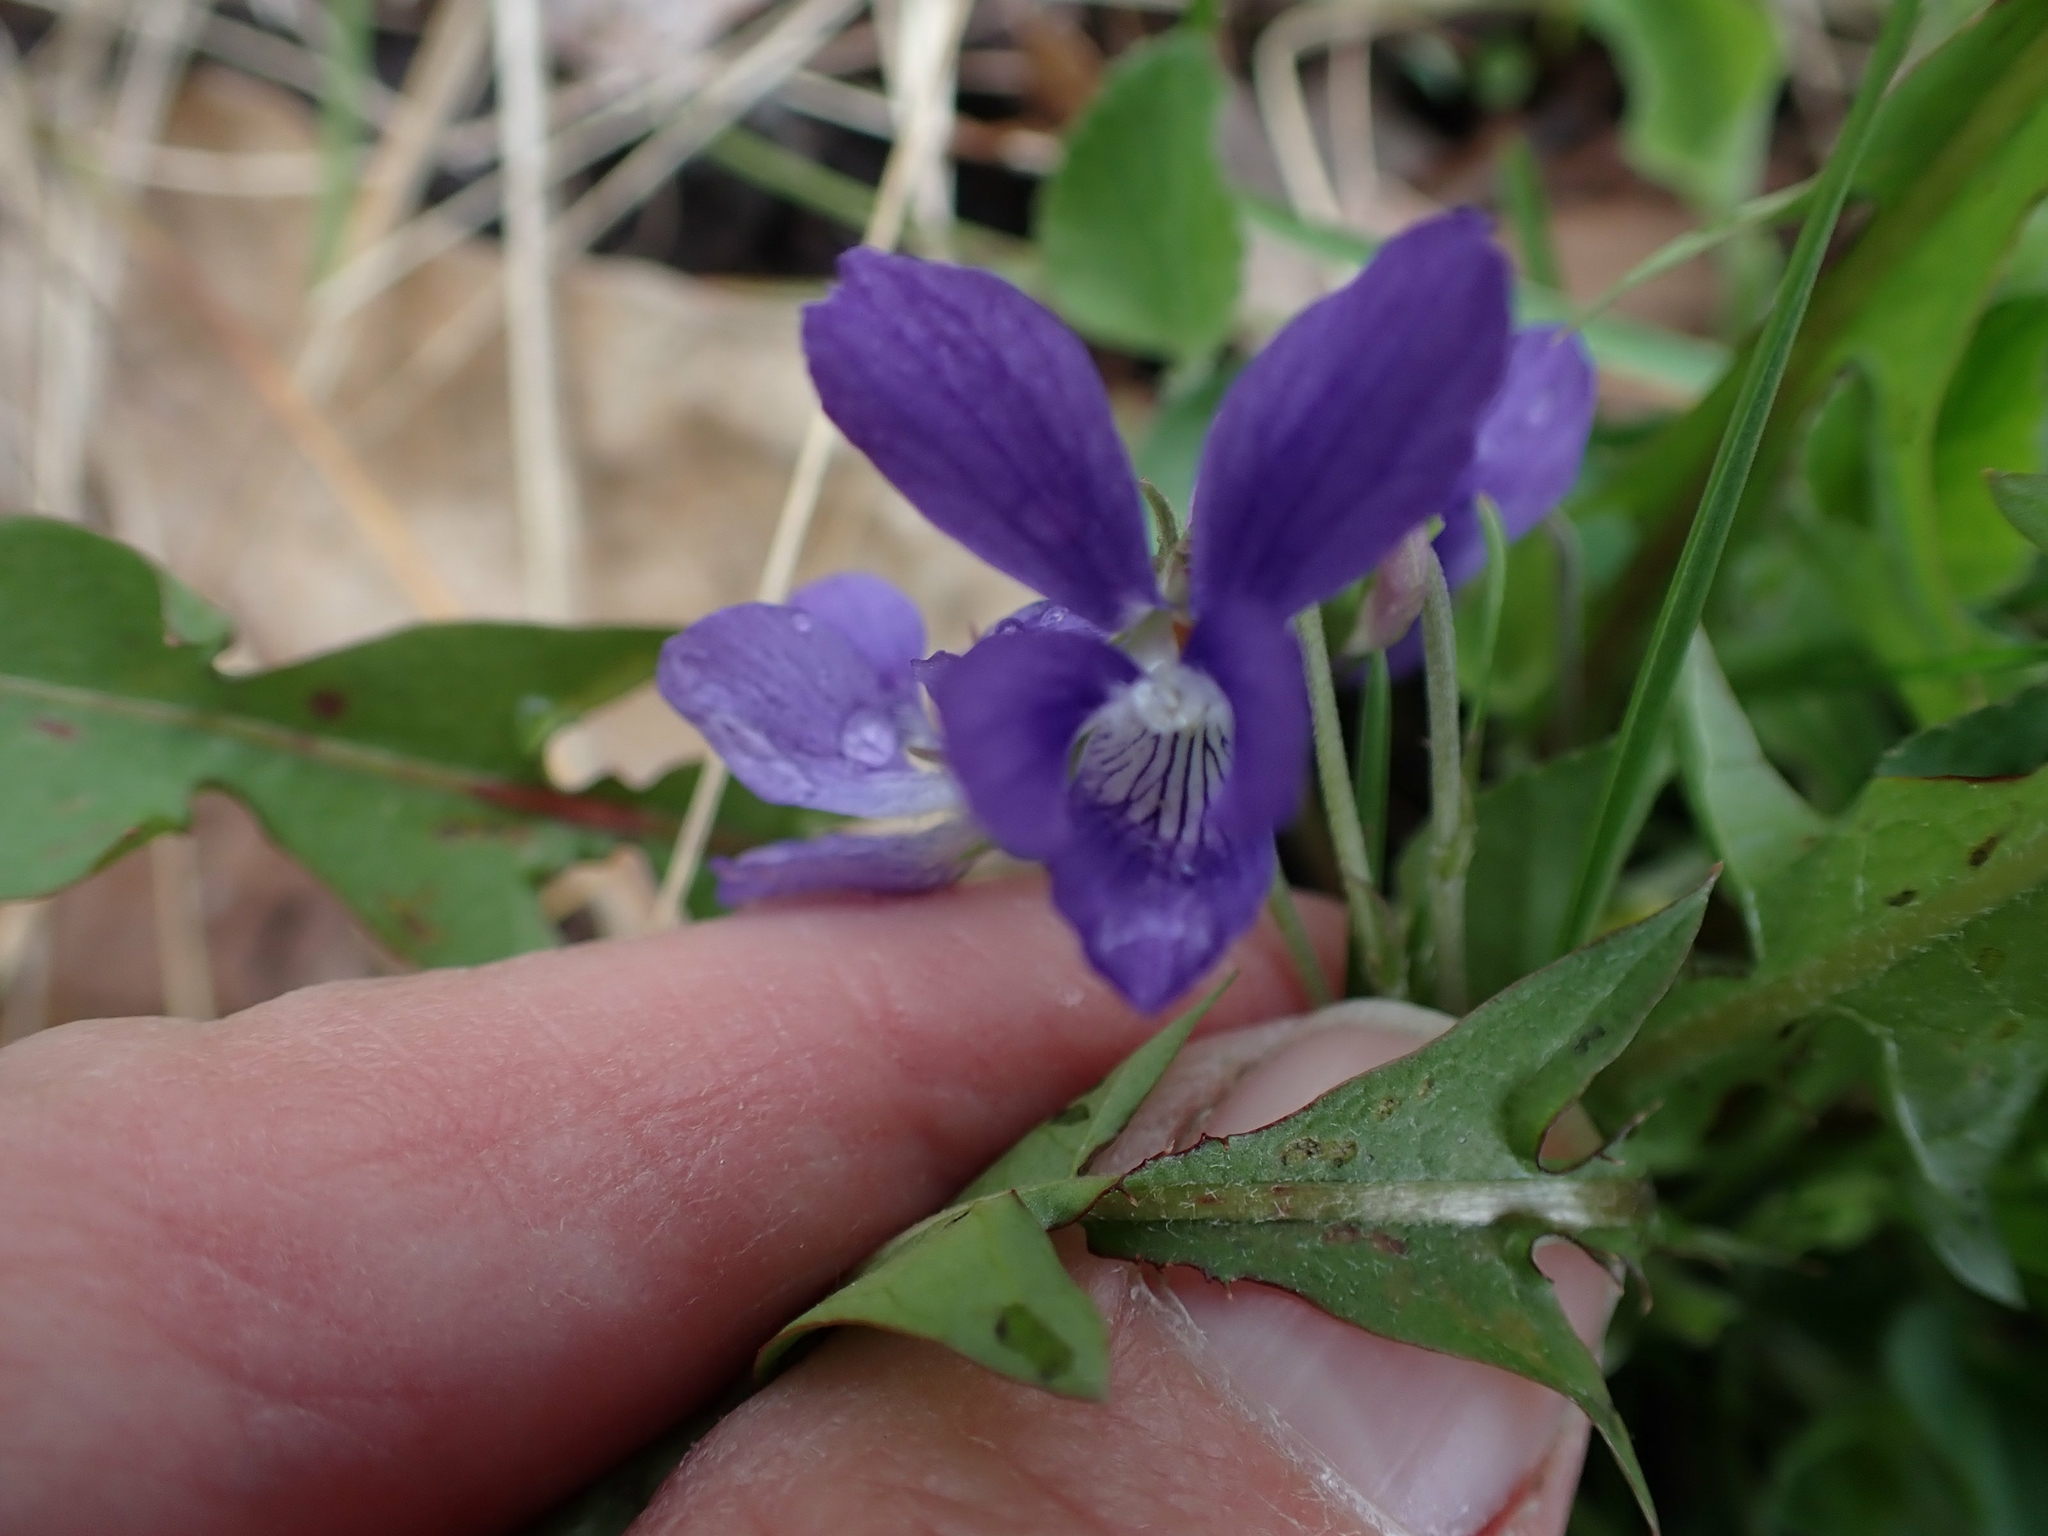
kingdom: Plantae
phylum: Tracheophyta
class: Magnoliopsida
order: Malpighiales
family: Violaceae
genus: Viola
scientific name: Viola adunca
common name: Sand violet
